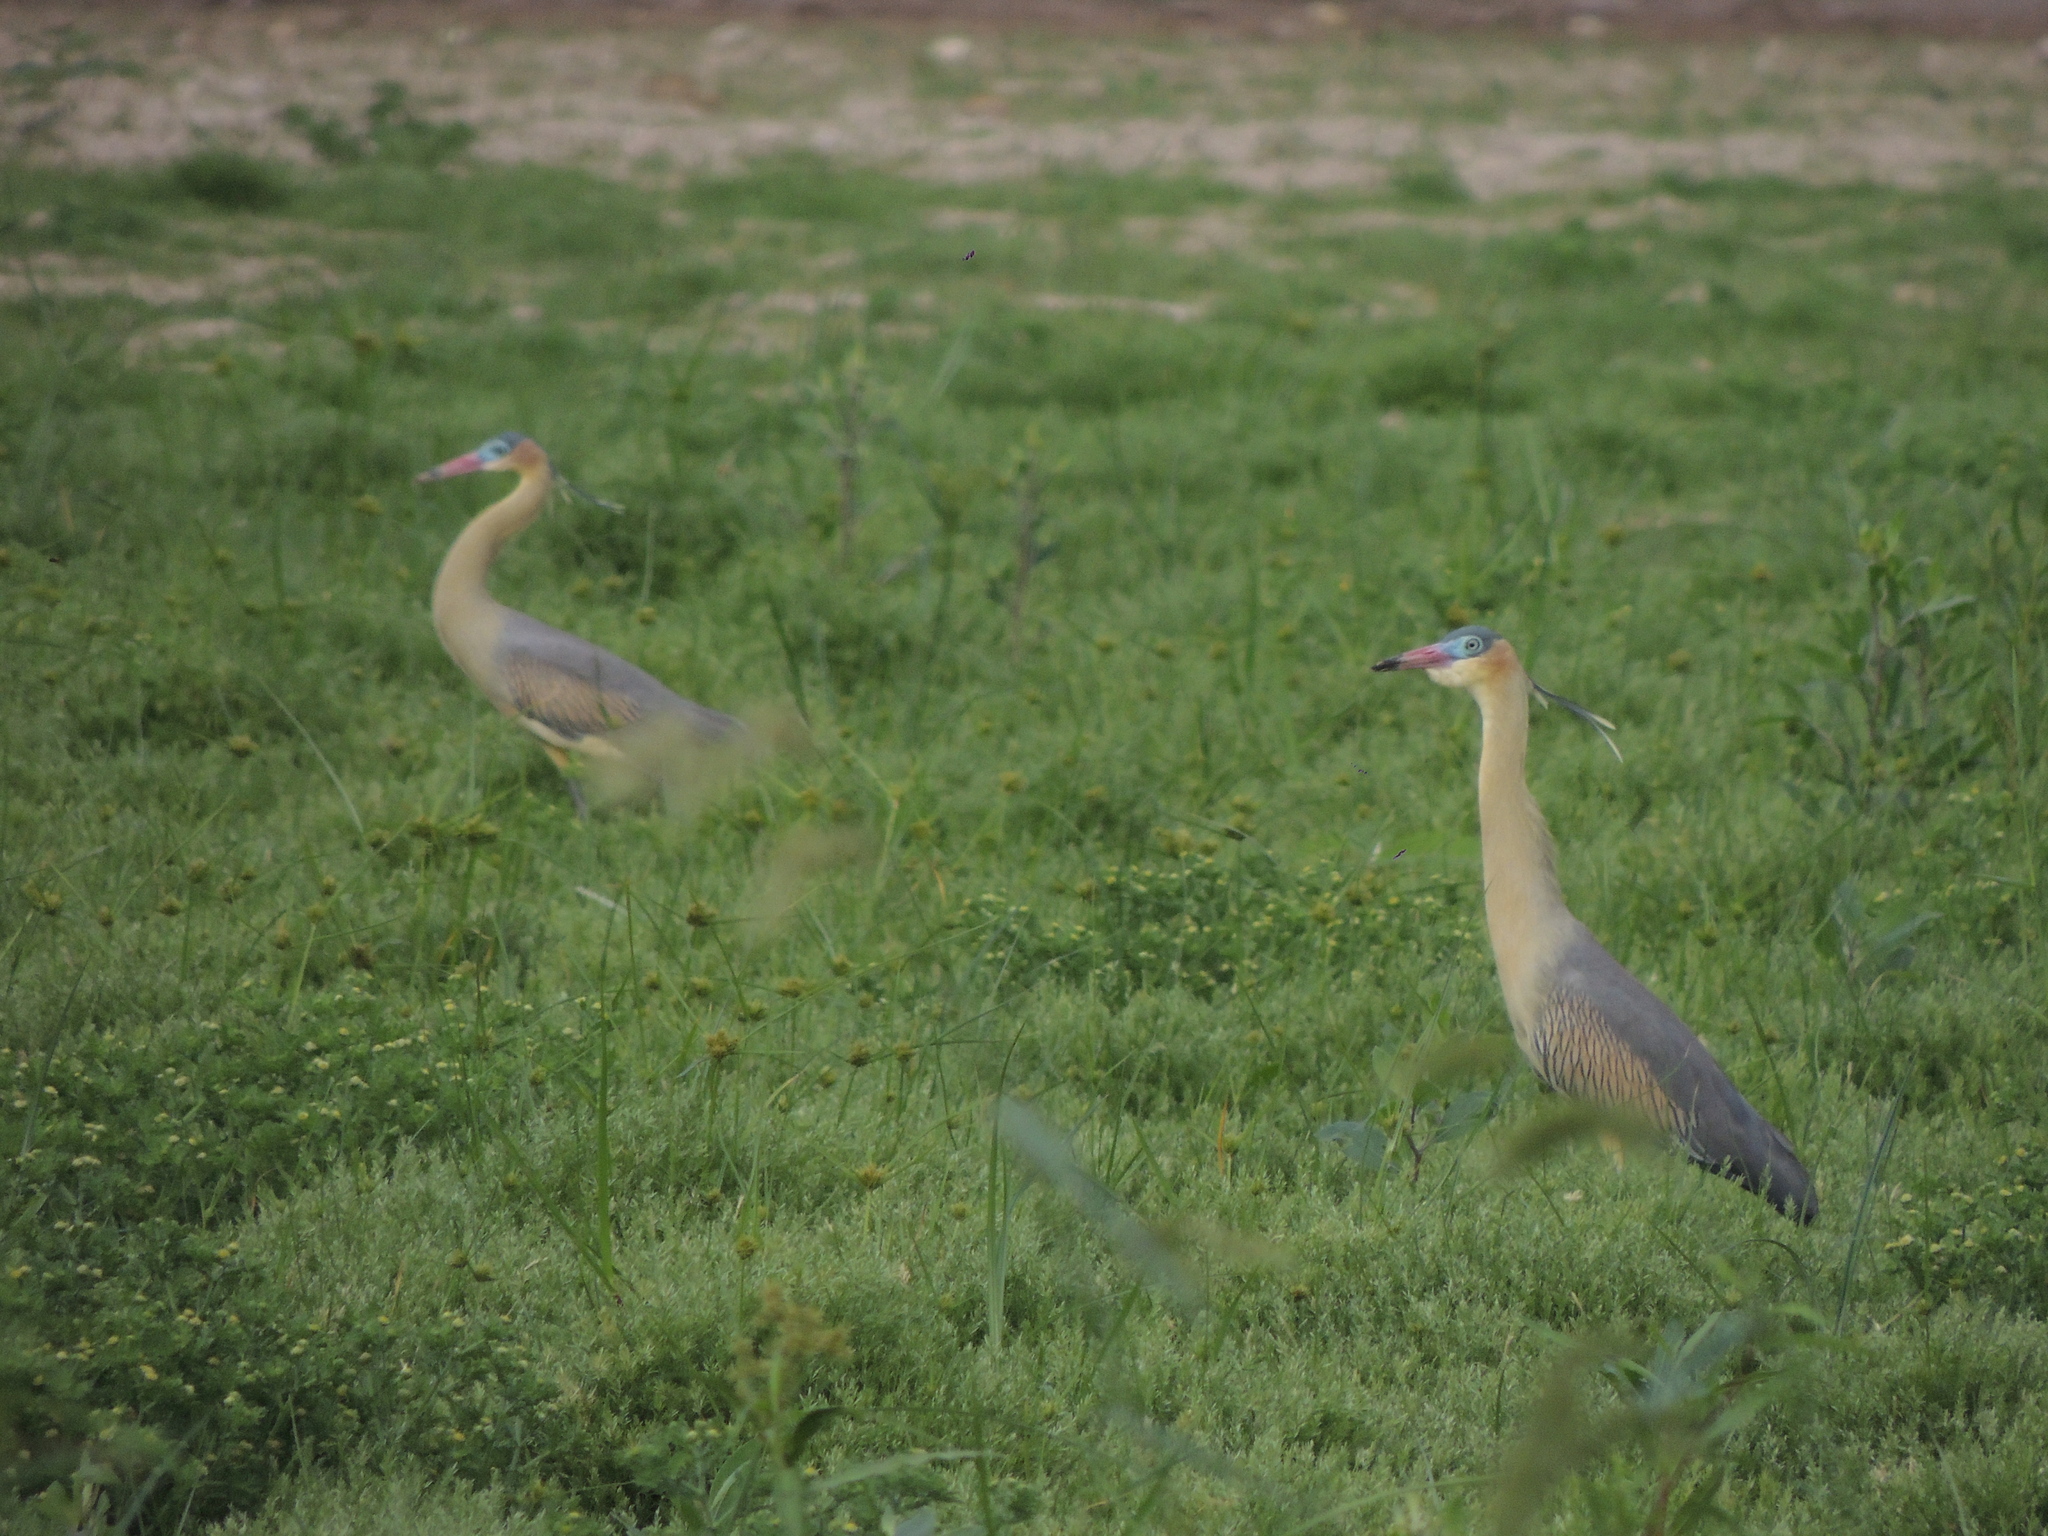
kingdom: Animalia
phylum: Chordata
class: Aves
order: Pelecaniformes
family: Ardeidae
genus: Syrigma
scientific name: Syrigma sibilatrix
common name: Whistling heron
